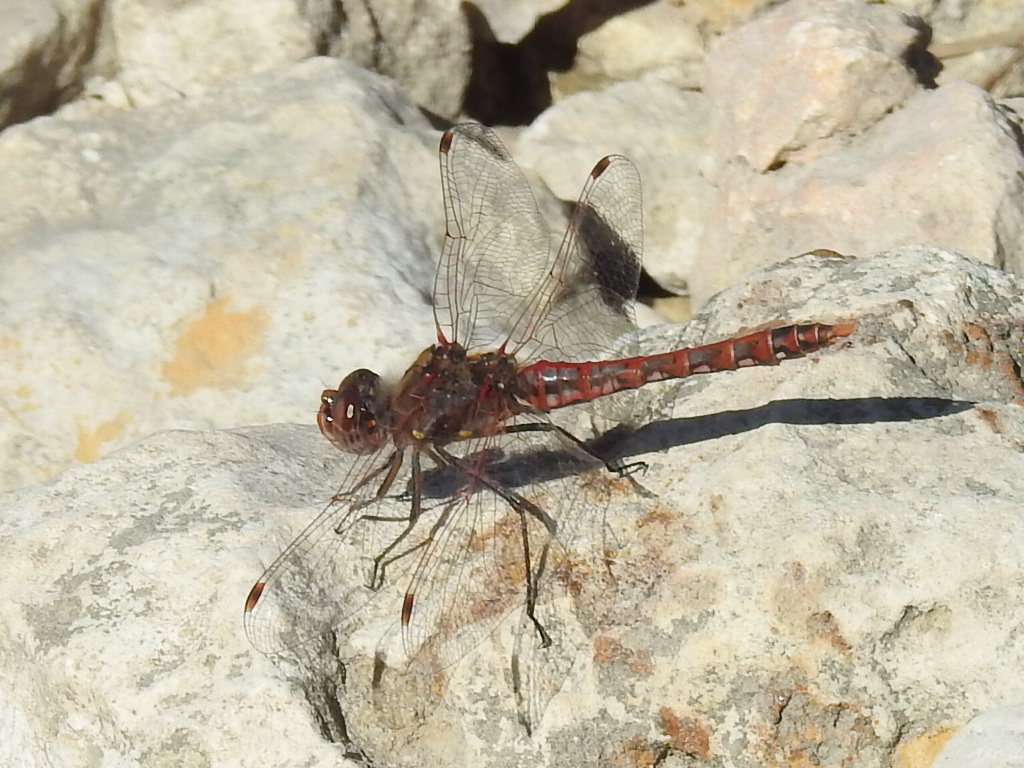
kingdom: Animalia
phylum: Arthropoda
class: Insecta
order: Odonata
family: Libellulidae
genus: Sympetrum
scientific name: Sympetrum corruptum
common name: Variegated meadowhawk
